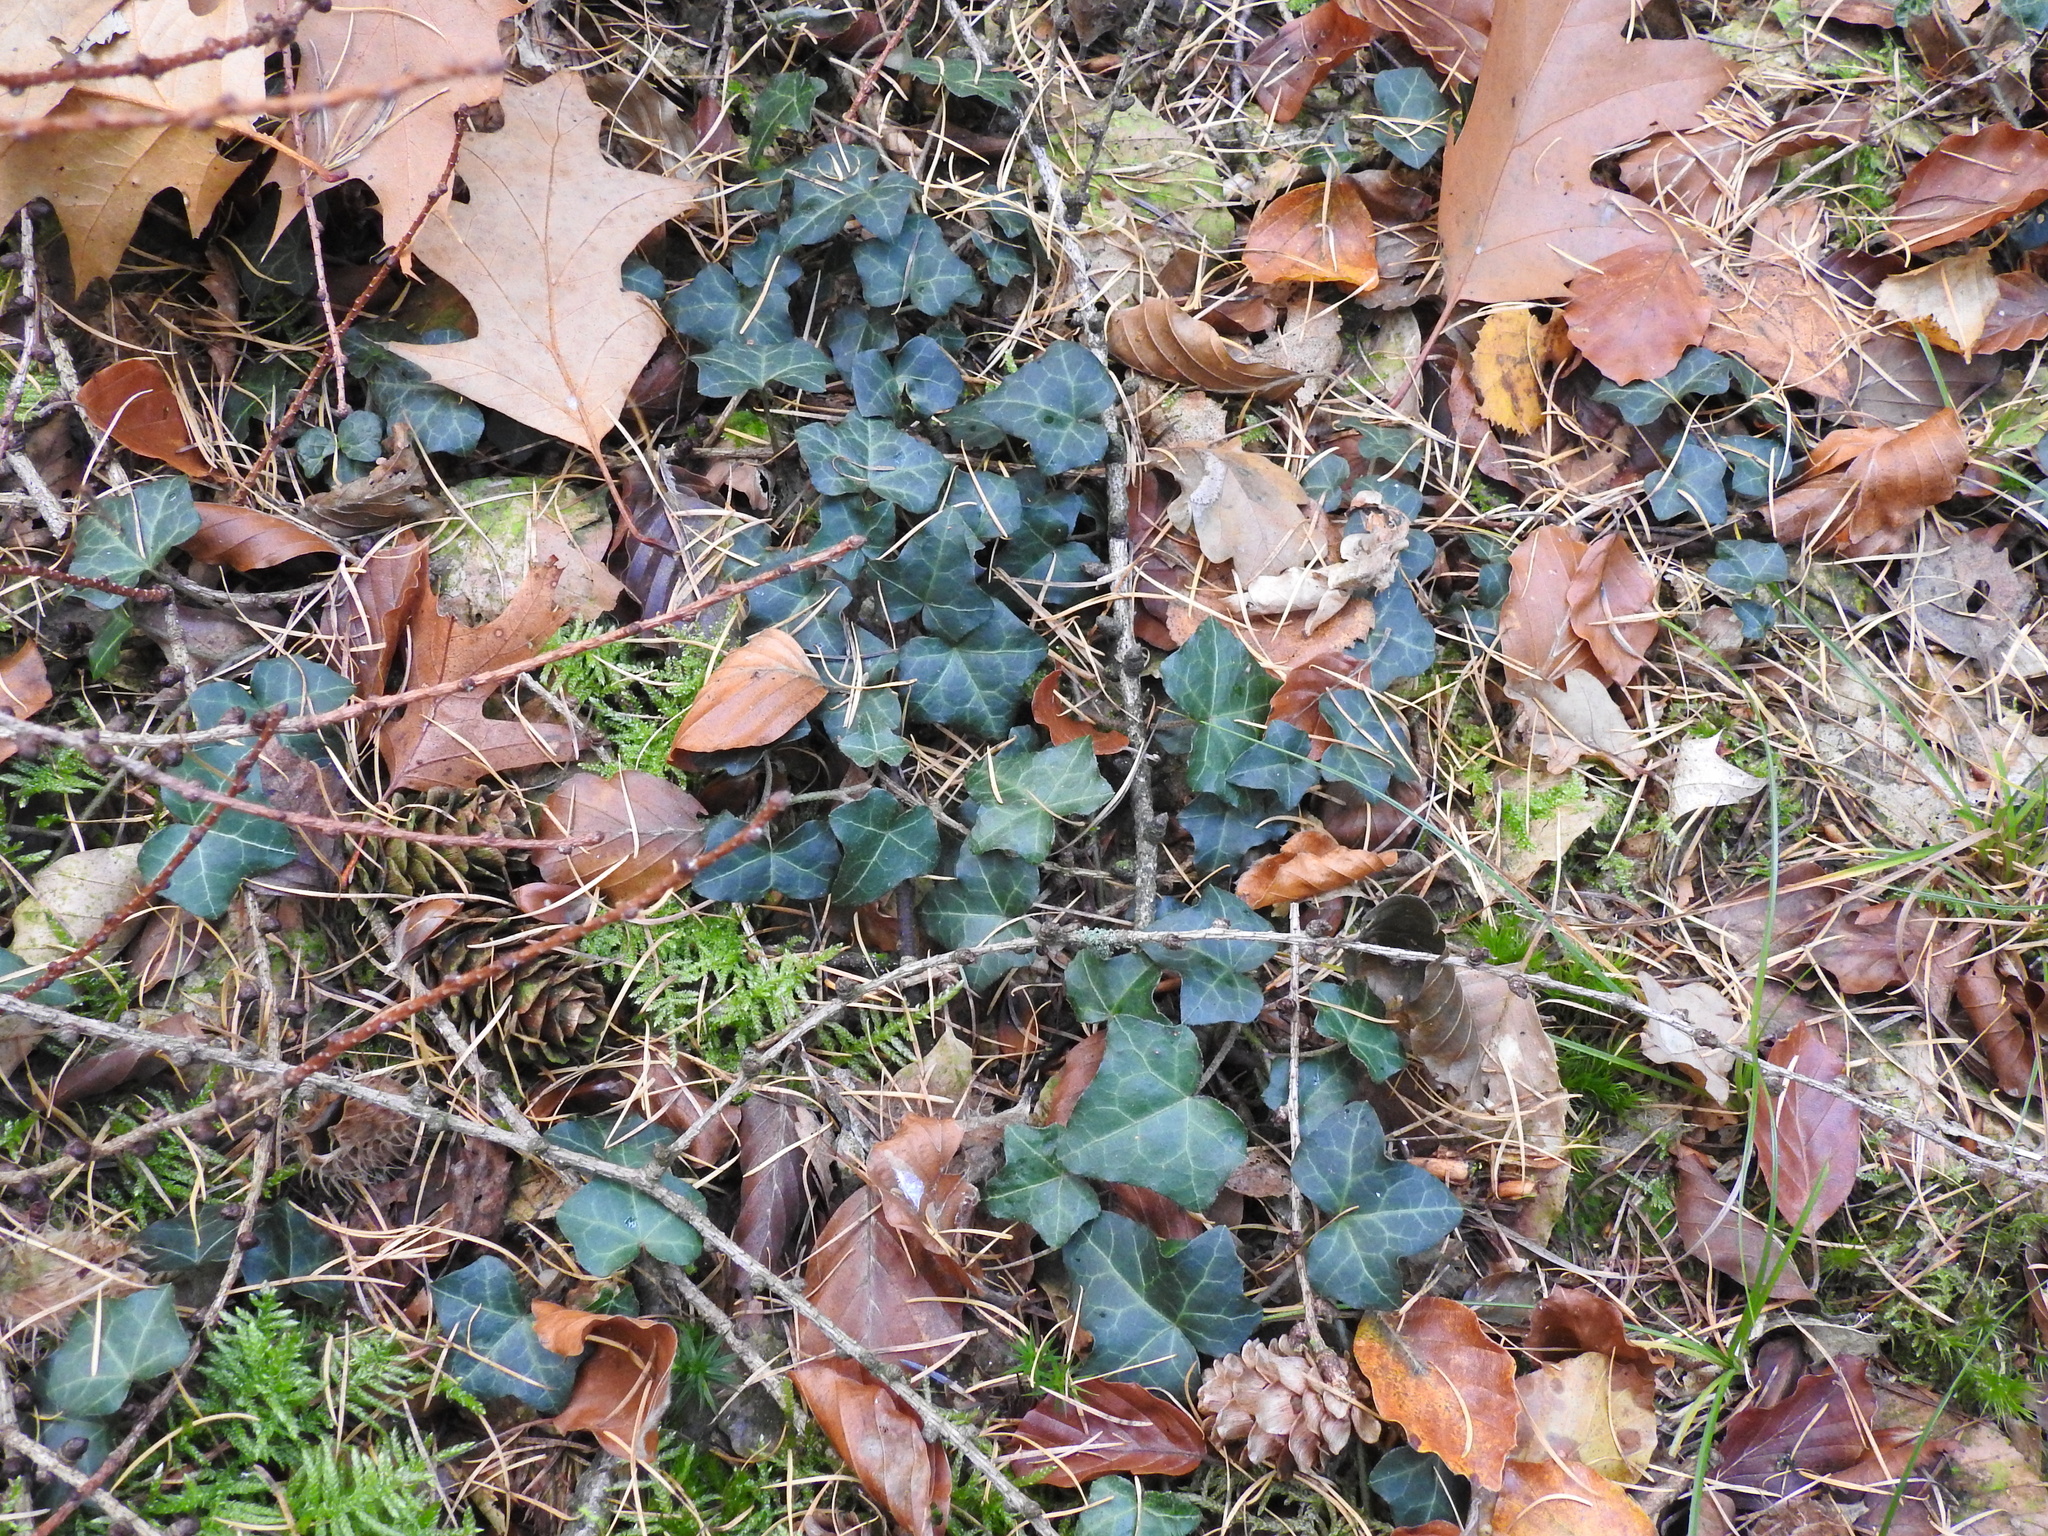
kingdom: Plantae
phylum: Tracheophyta
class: Magnoliopsida
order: Apiales
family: Araliaceae
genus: Hedera
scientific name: Hedera helix
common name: Ivy
